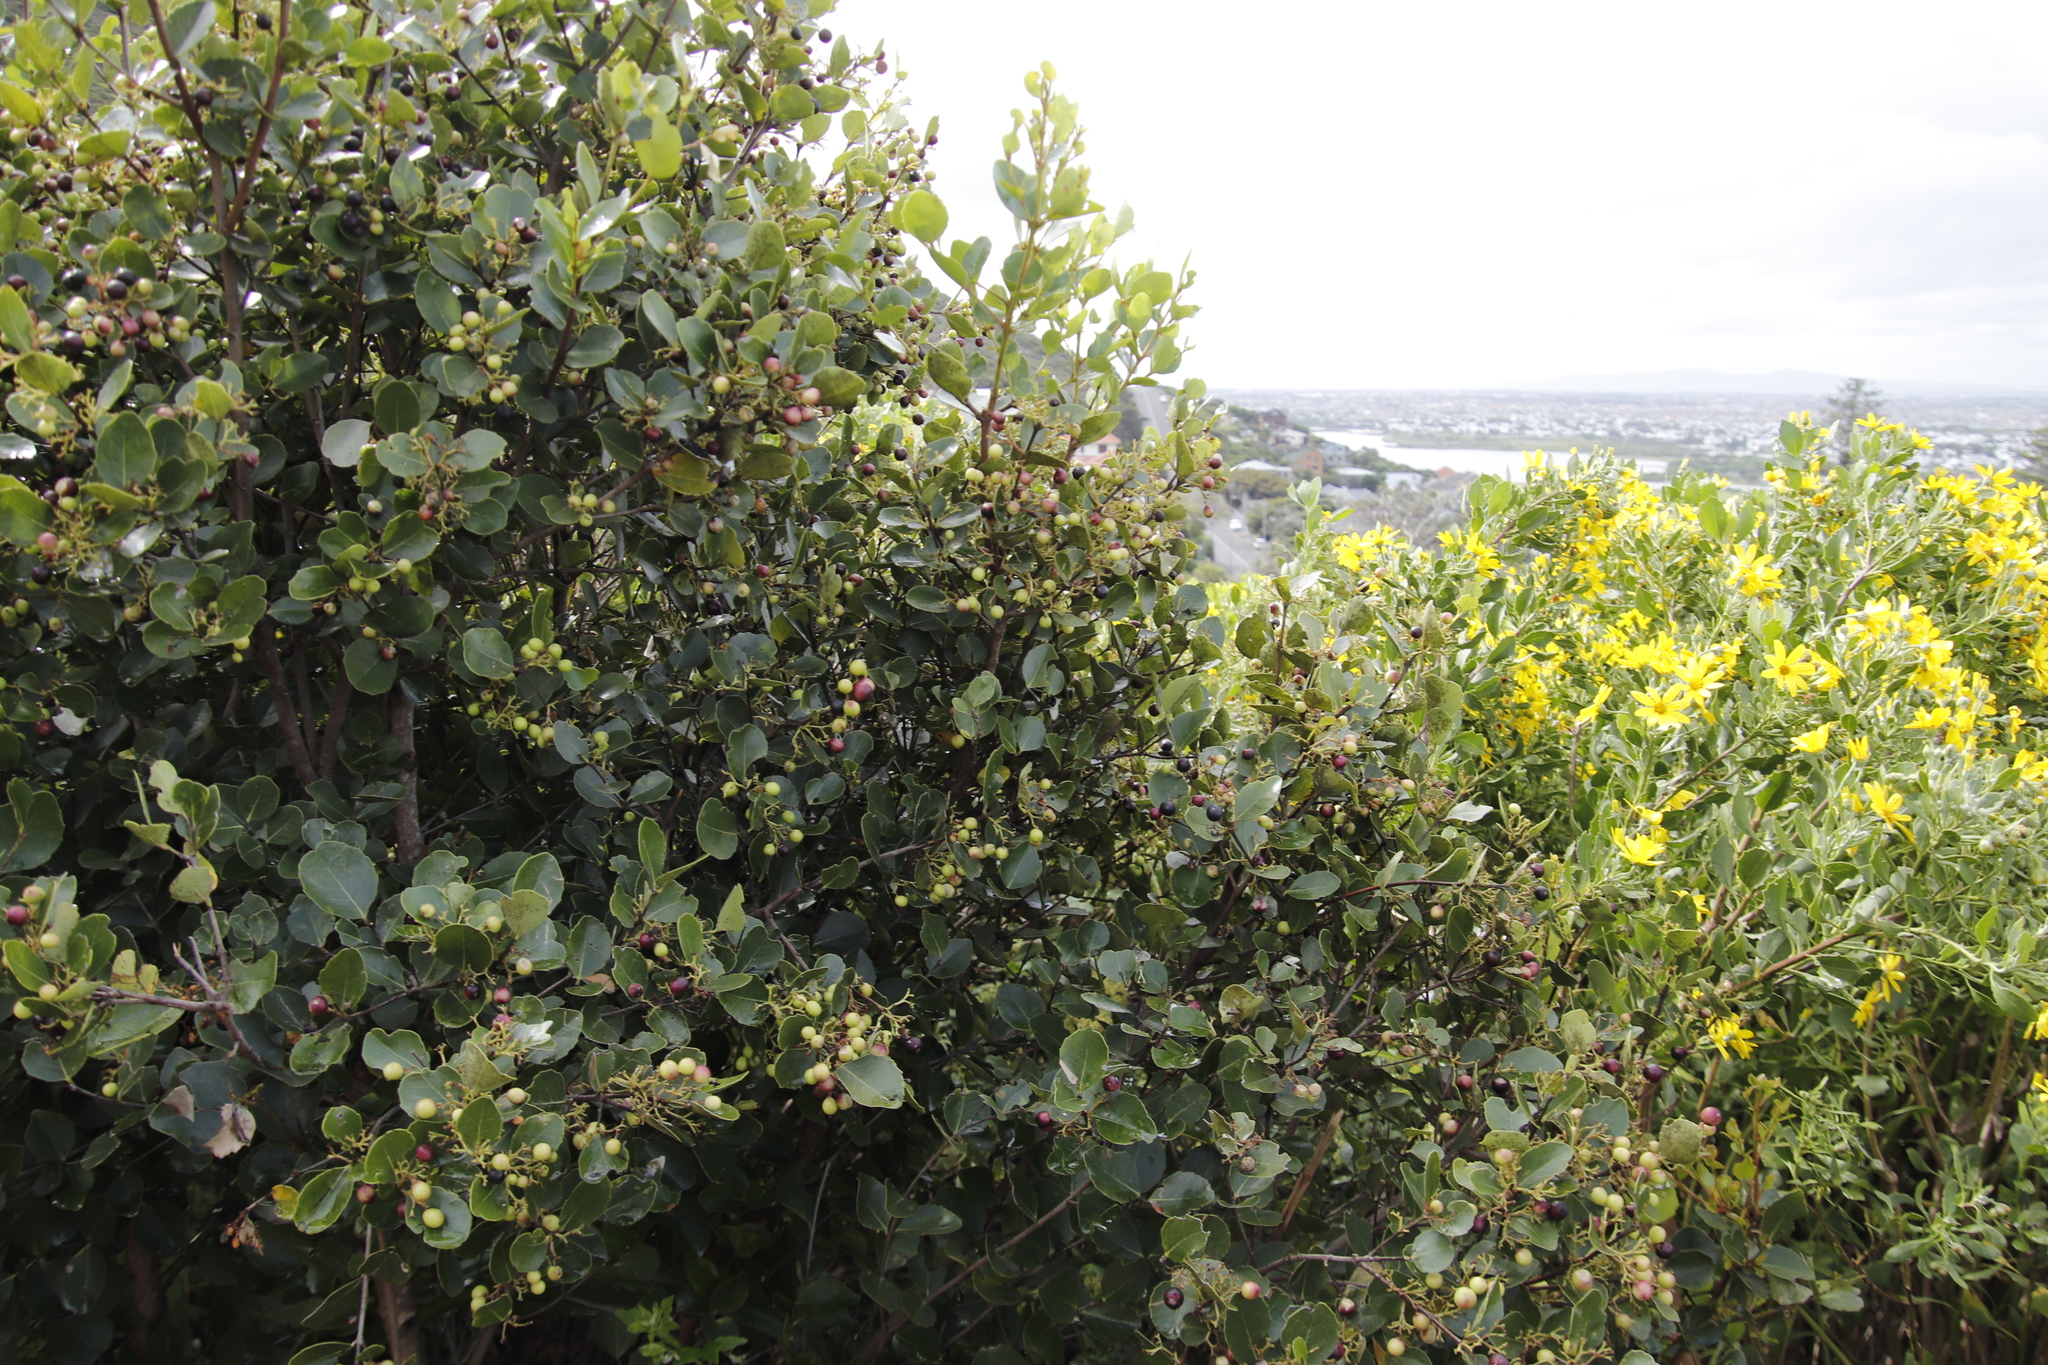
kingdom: Plantae
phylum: Tracheophyta
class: Magnoliopsida
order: Celastrales
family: Celastraceae
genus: Cassine
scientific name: Cassine peragua
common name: Cape saffron
